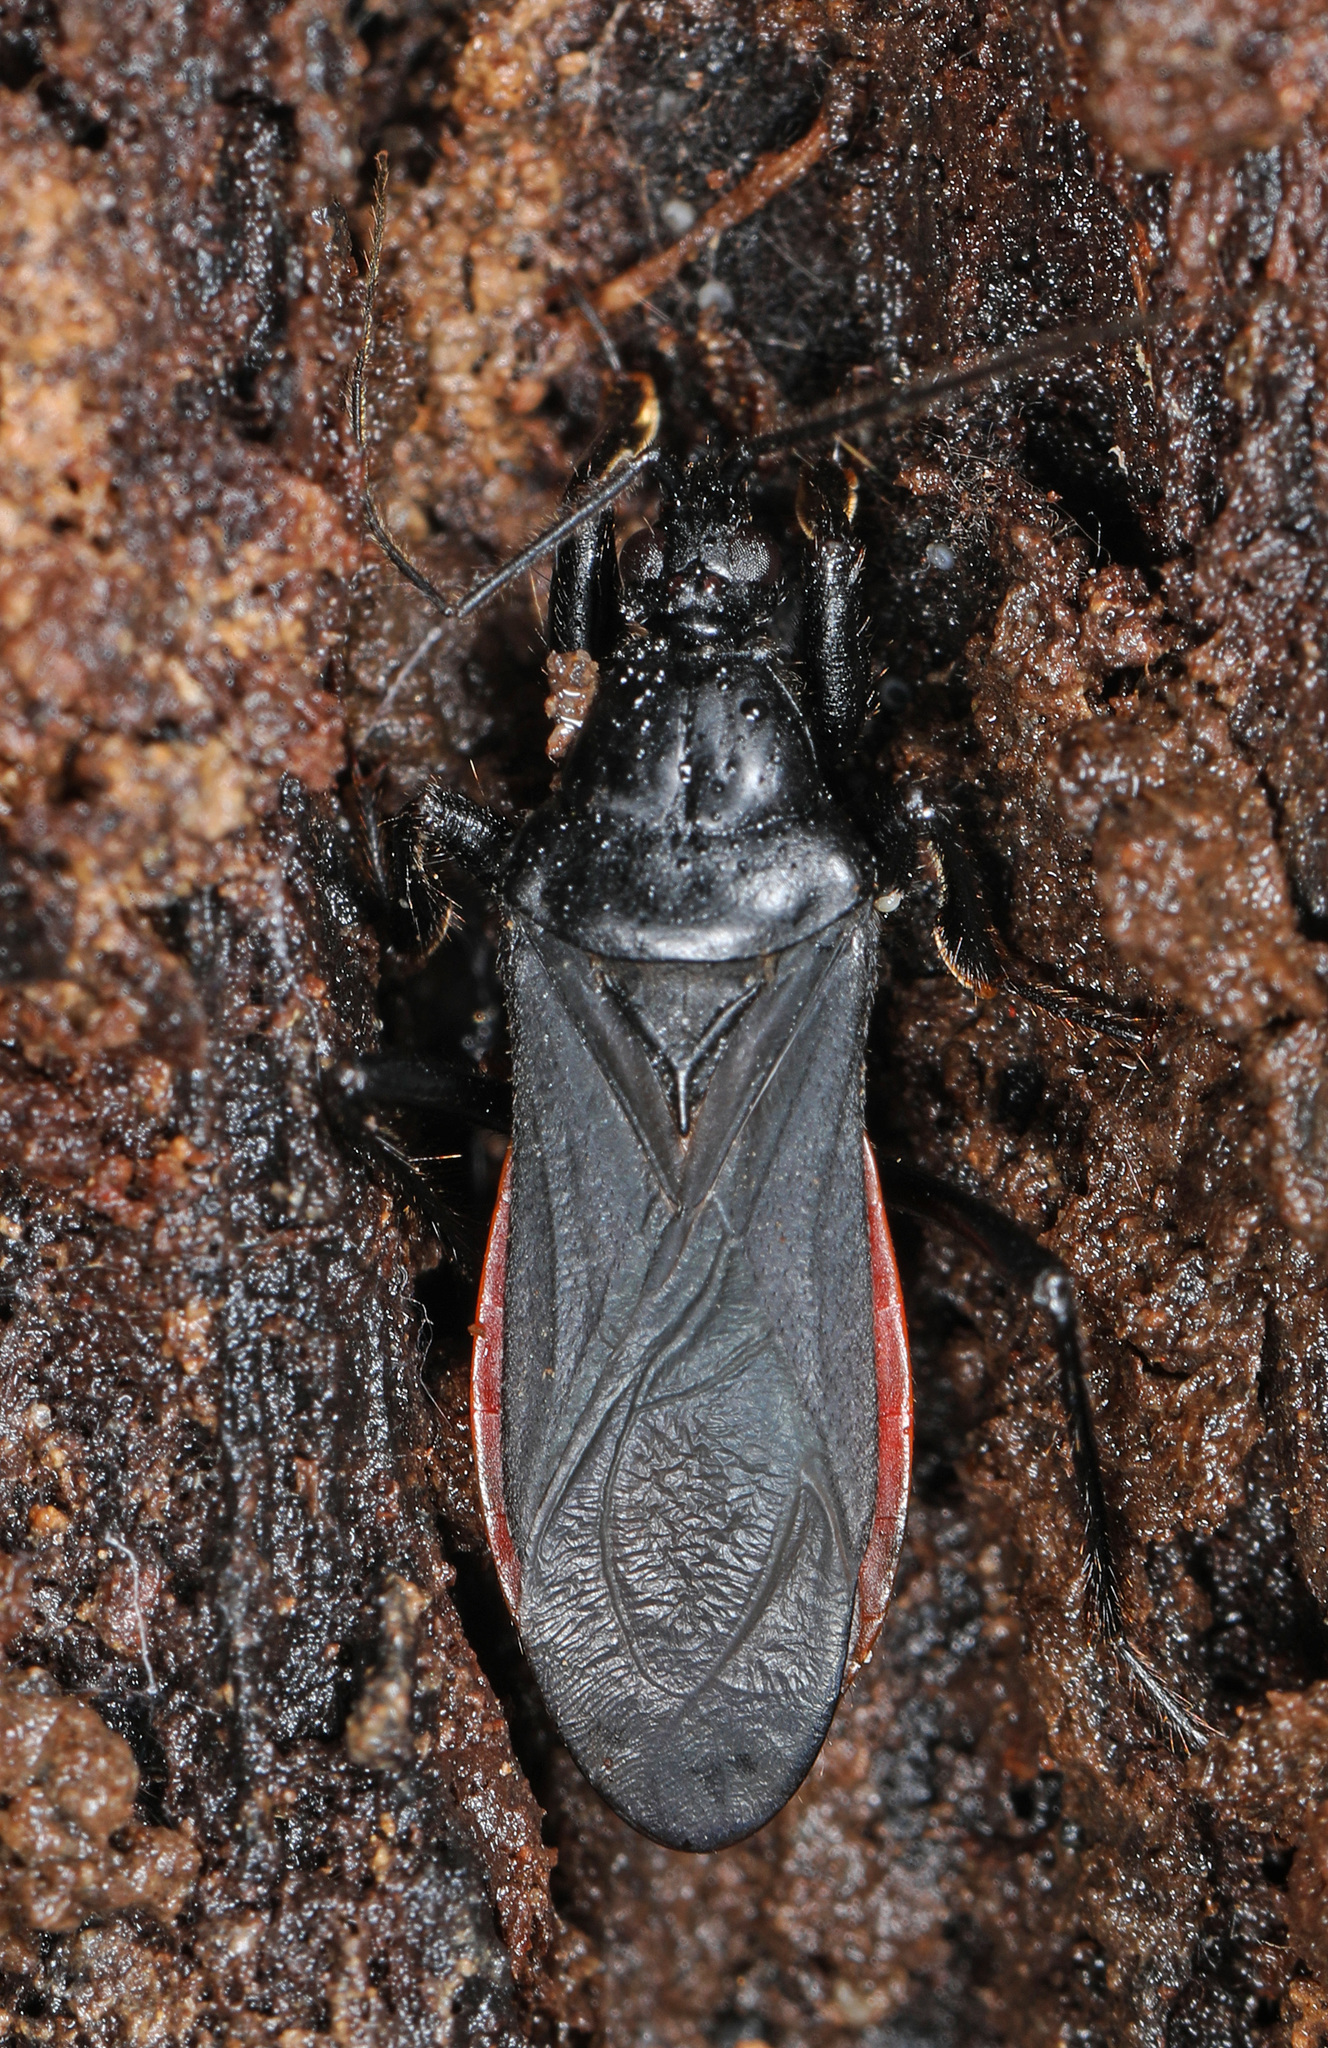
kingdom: Animalia
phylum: Arthropoda
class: Insecta
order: Hemiptera
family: Reduviidae
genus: Melanolestes
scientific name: Melanolestes picipes
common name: Assassin bug
